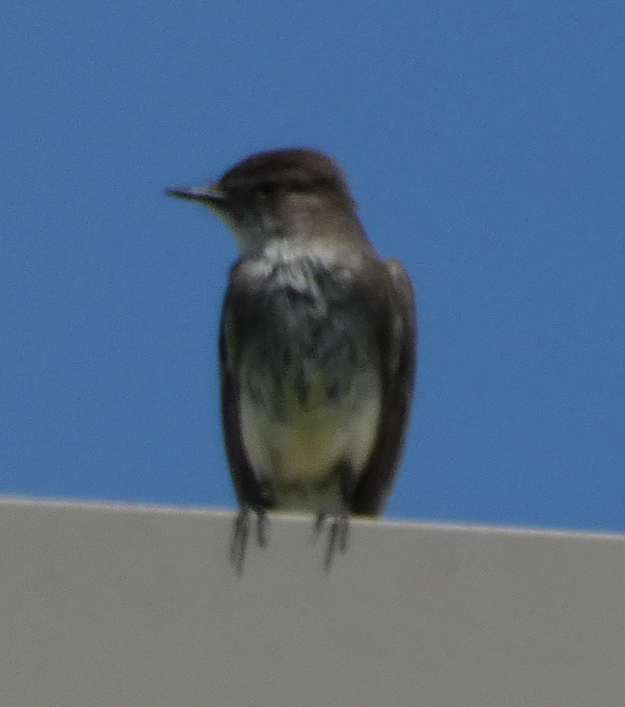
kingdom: Animalia
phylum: Chordata
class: Aves
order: Passeriformes
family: Tyrannidae
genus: Sayornis
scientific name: Sayornis phoebe
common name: Eastern phoebe
